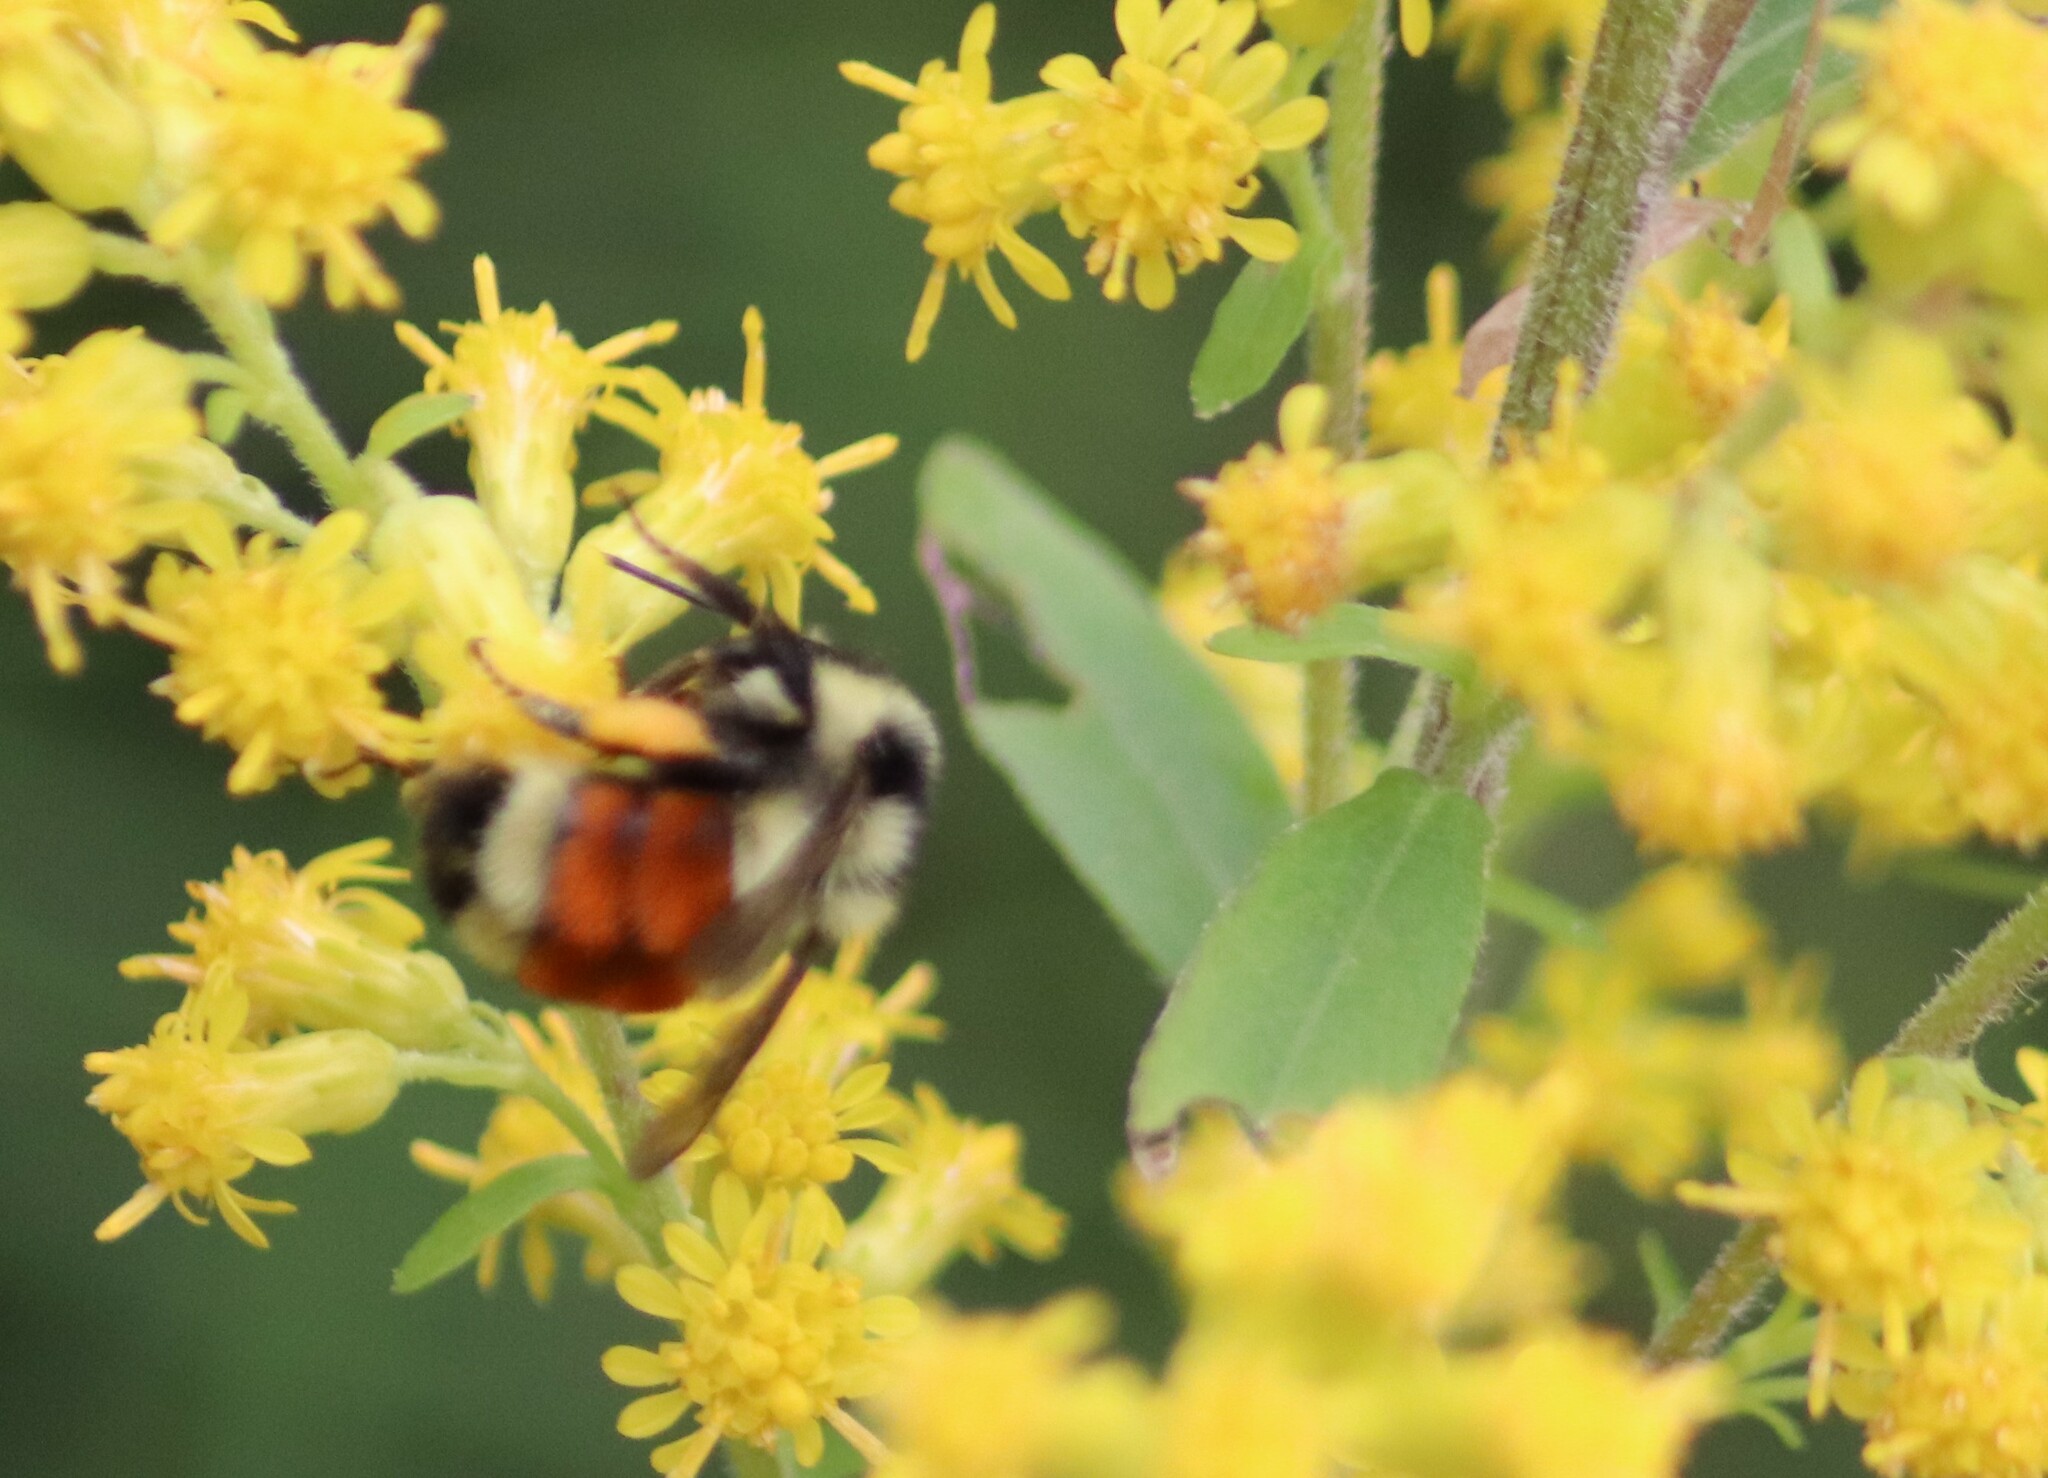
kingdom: Animalia
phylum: Arthropoda
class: Insecta
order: Hymenoptera
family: Apidae
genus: Bombus
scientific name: Bombus ternarius
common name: Tri-colored bumble bee
